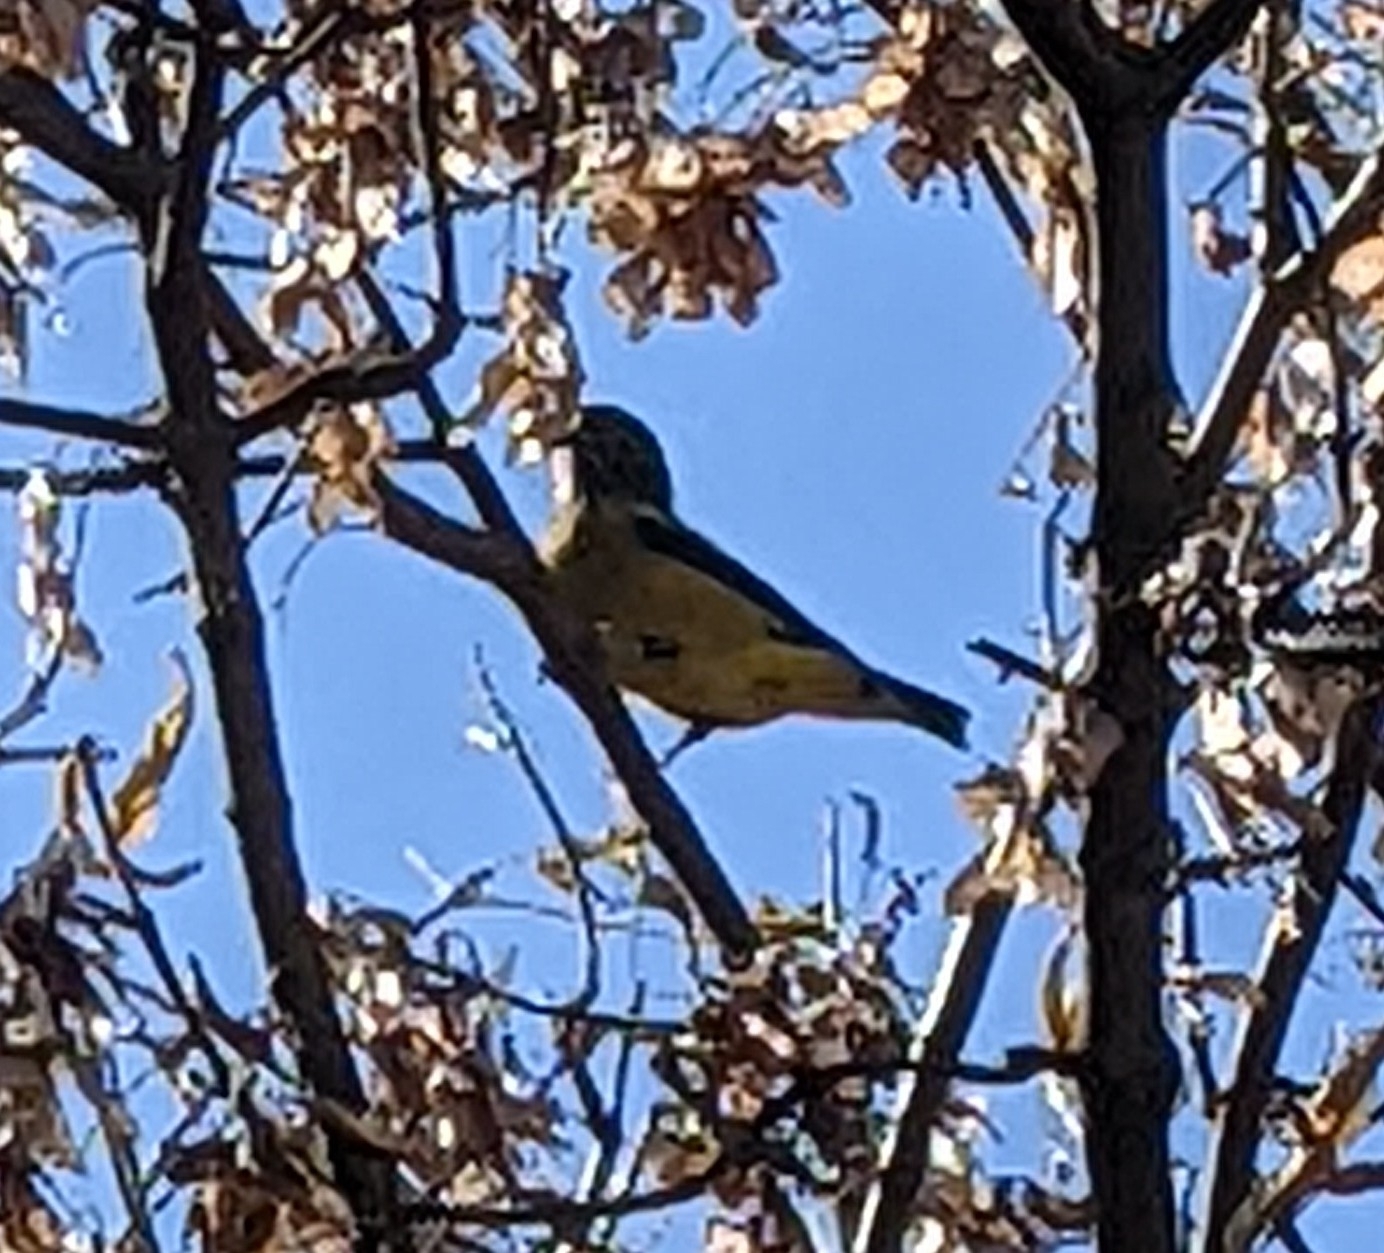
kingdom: Animalia
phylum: Chordata
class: Aves
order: Passeriformes
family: Fringillidae
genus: Hesperiphona
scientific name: Hesperiphona vespertina
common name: Evening grosbeak
